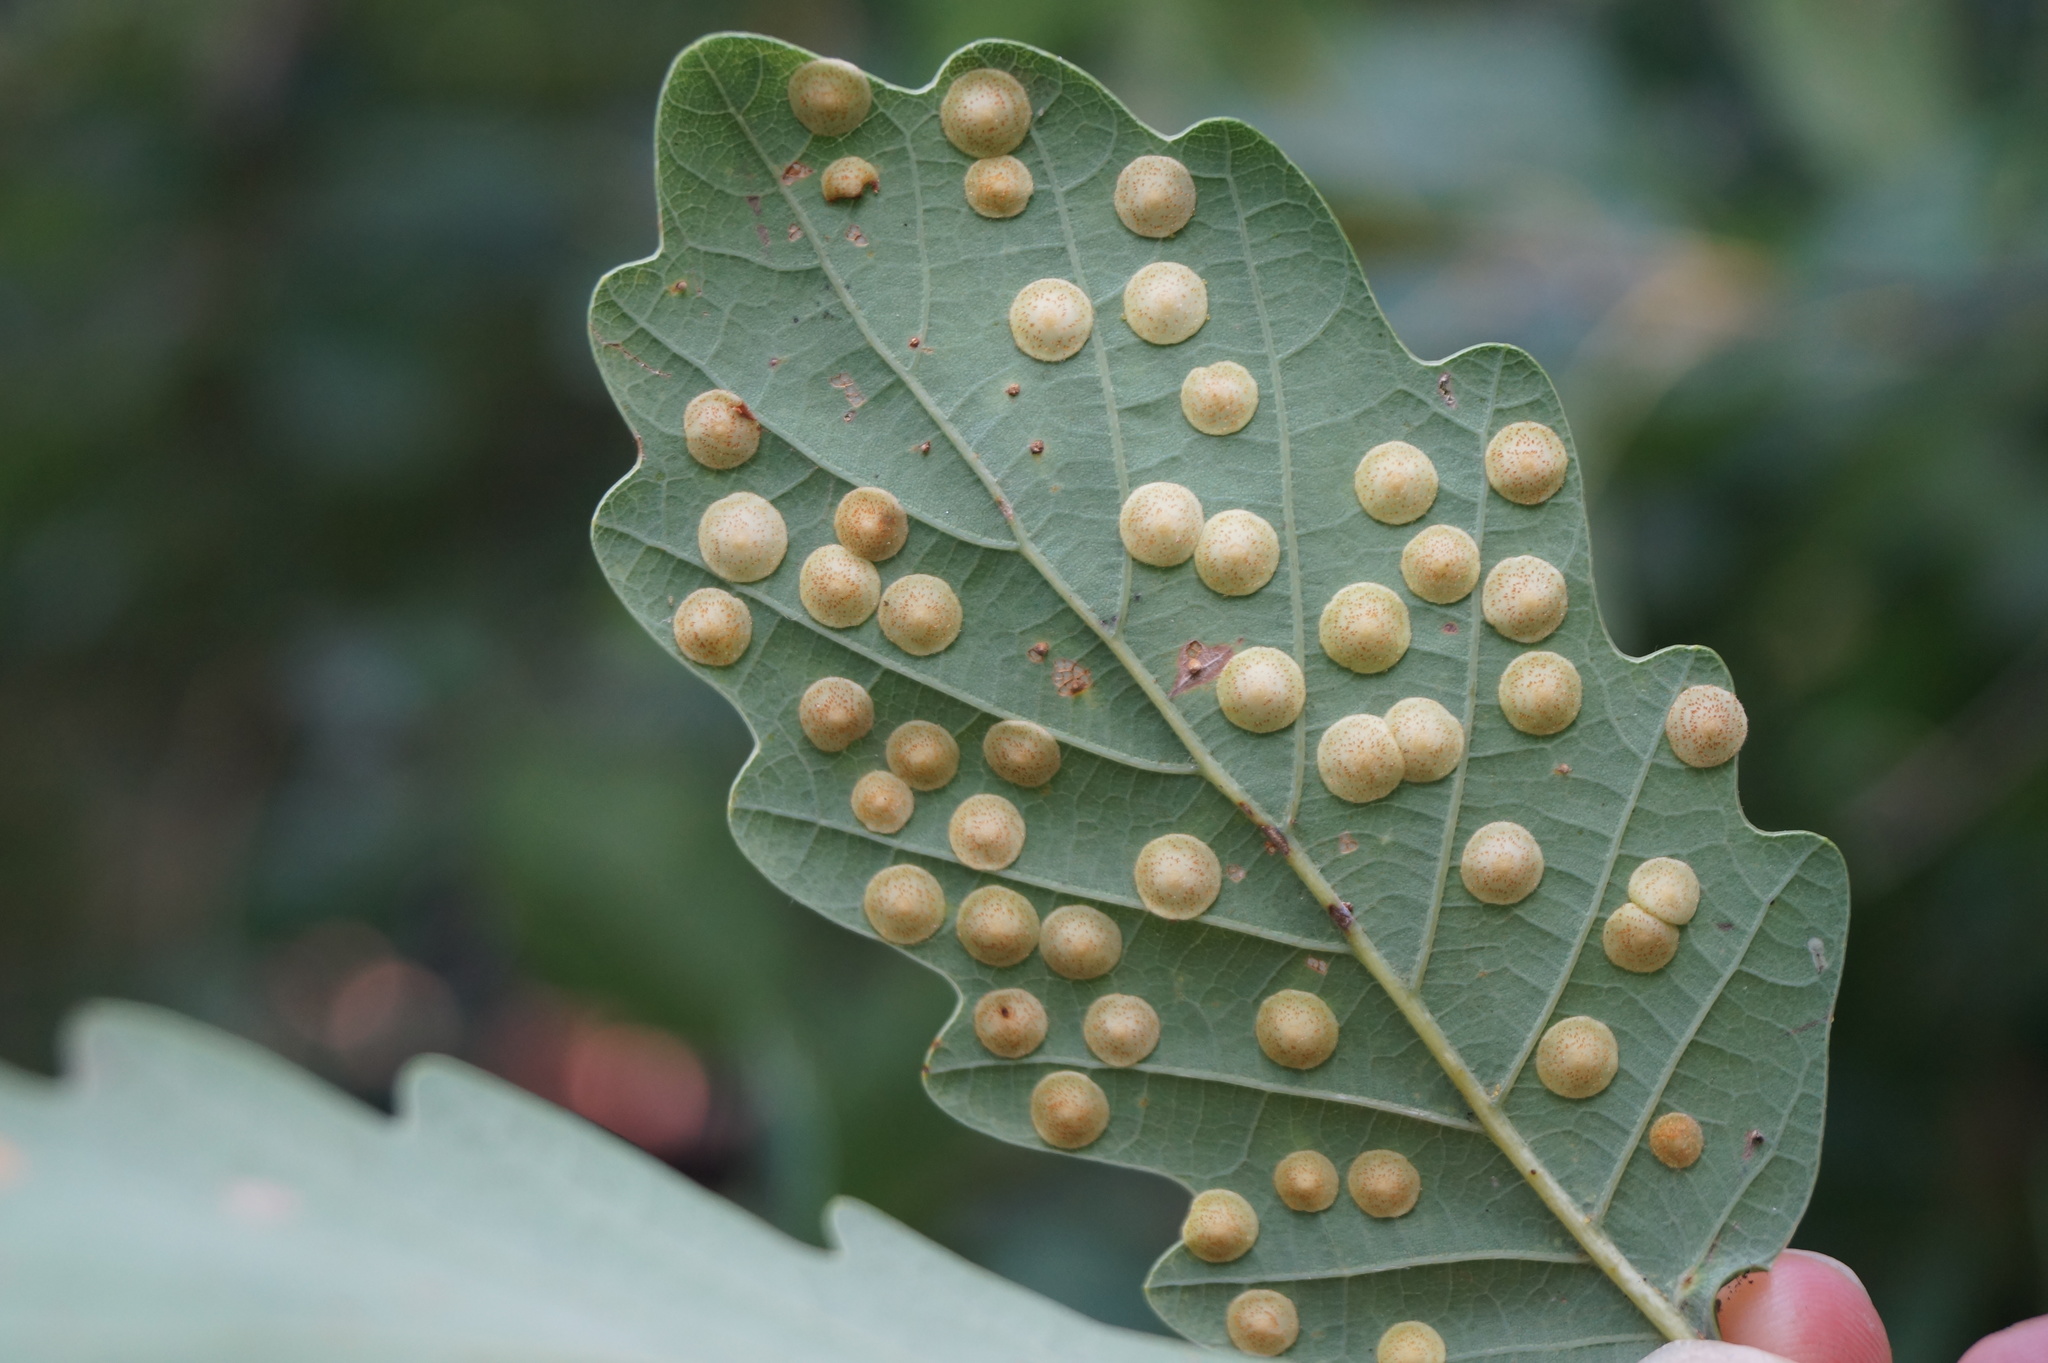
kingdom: Animalia
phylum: Arthropoda
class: Insecta
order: Hymenoptera
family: Cynipidae
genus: Neuroterus
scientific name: Neuroterus quercusbaccarum
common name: Common spangle gall
